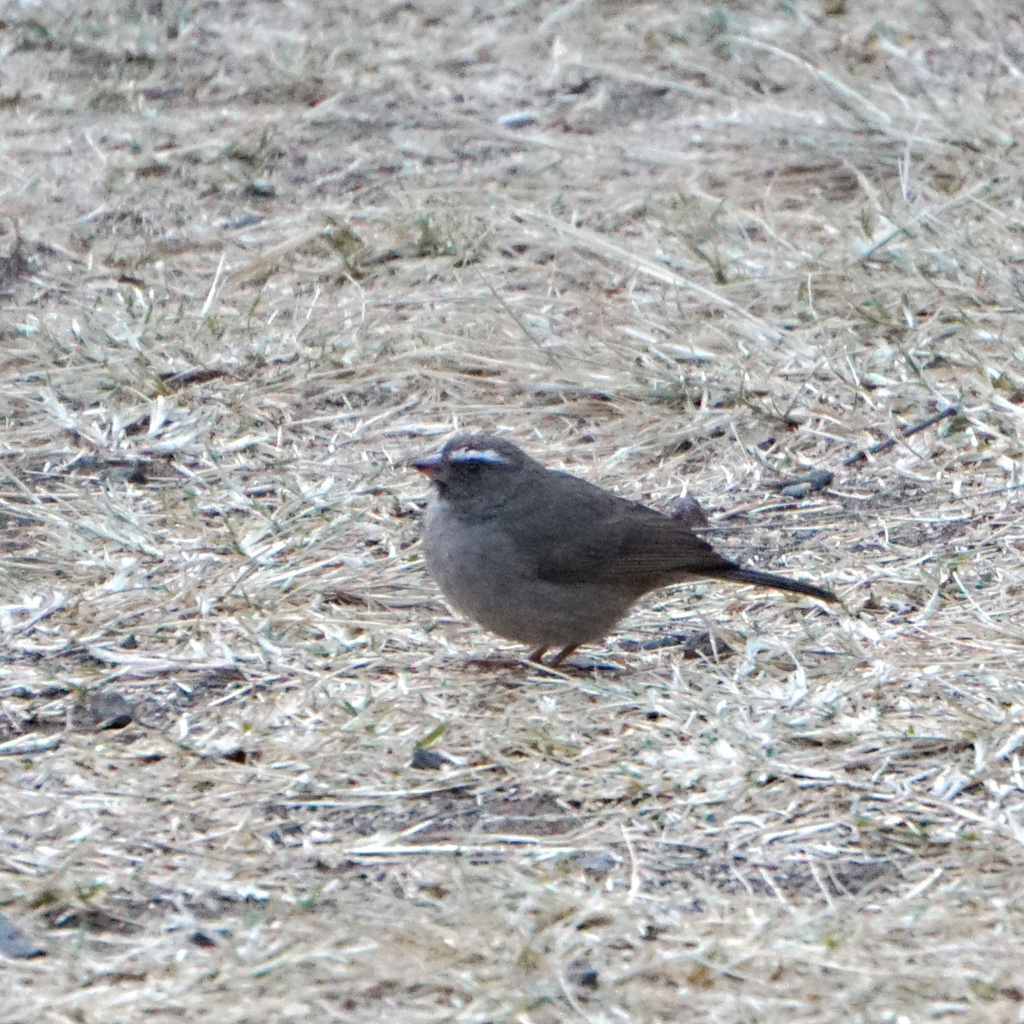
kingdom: Animalia
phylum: Chordata
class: Aves
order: Passeriformes
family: Fringillidae
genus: Crithagra
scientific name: Crithagra tristriata
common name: Brown-rumped seedeater
